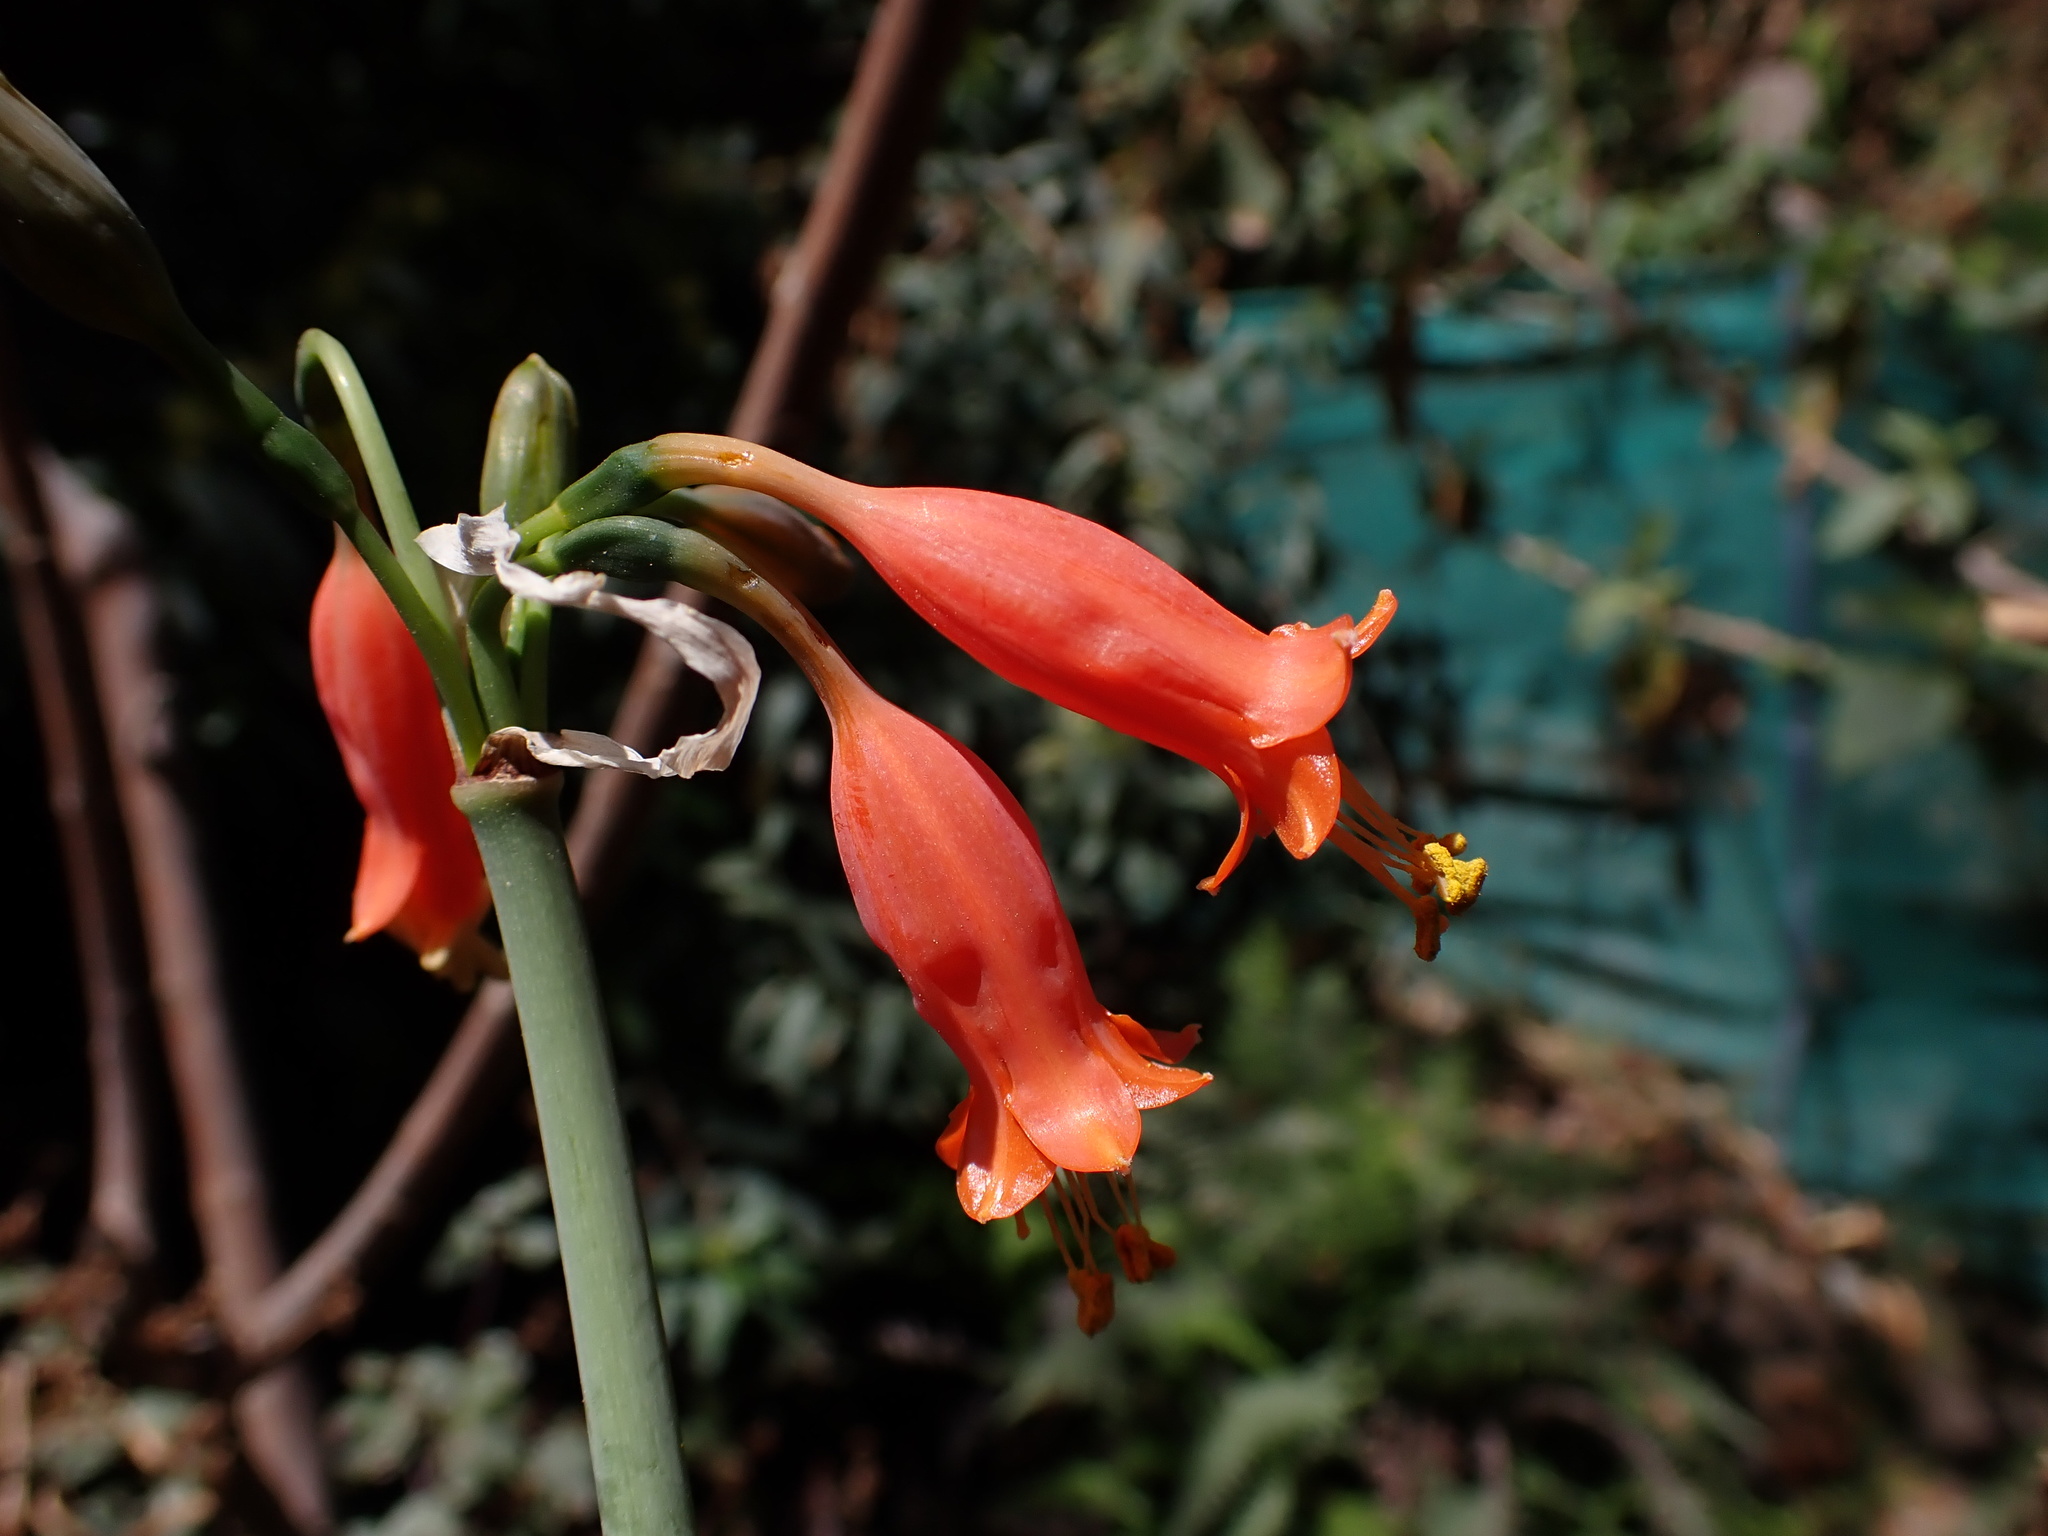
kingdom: Plantae
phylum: Tracheophyta
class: Liliopsida
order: Asparagales
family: Amaryllidaceae
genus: Stenomesson
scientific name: Stenomesson miniatum
